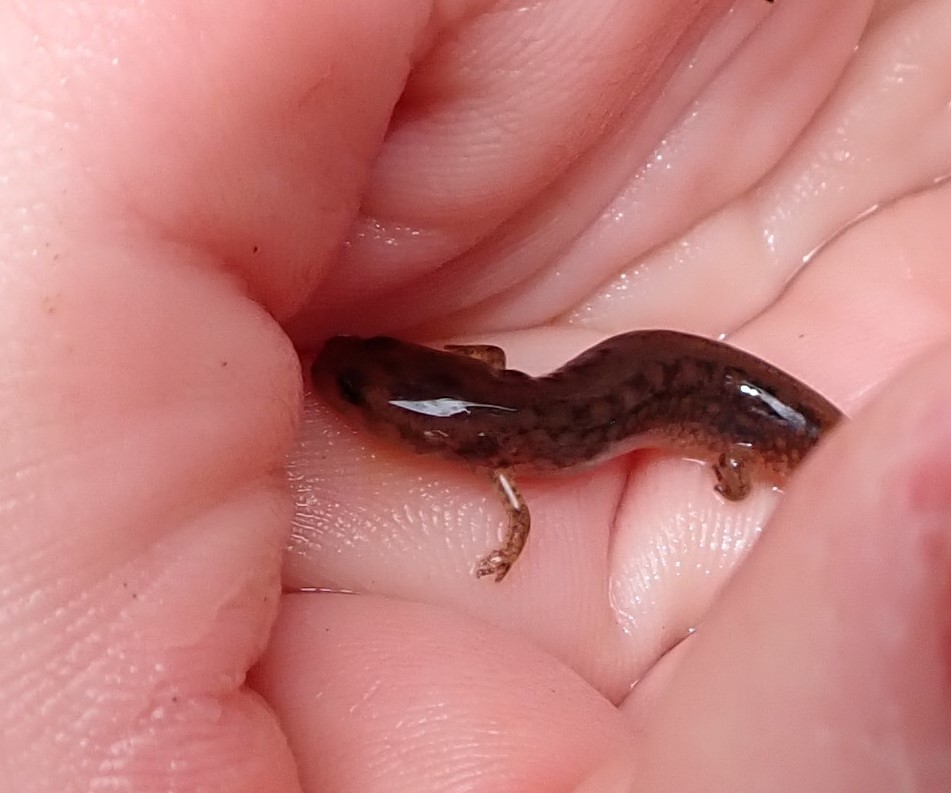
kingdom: Animalia
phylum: Chordata
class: Amphibia
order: Caudata
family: Plethodontidae
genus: Eurycea
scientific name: Eurycea bislineata
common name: Northern two-lined salamander
